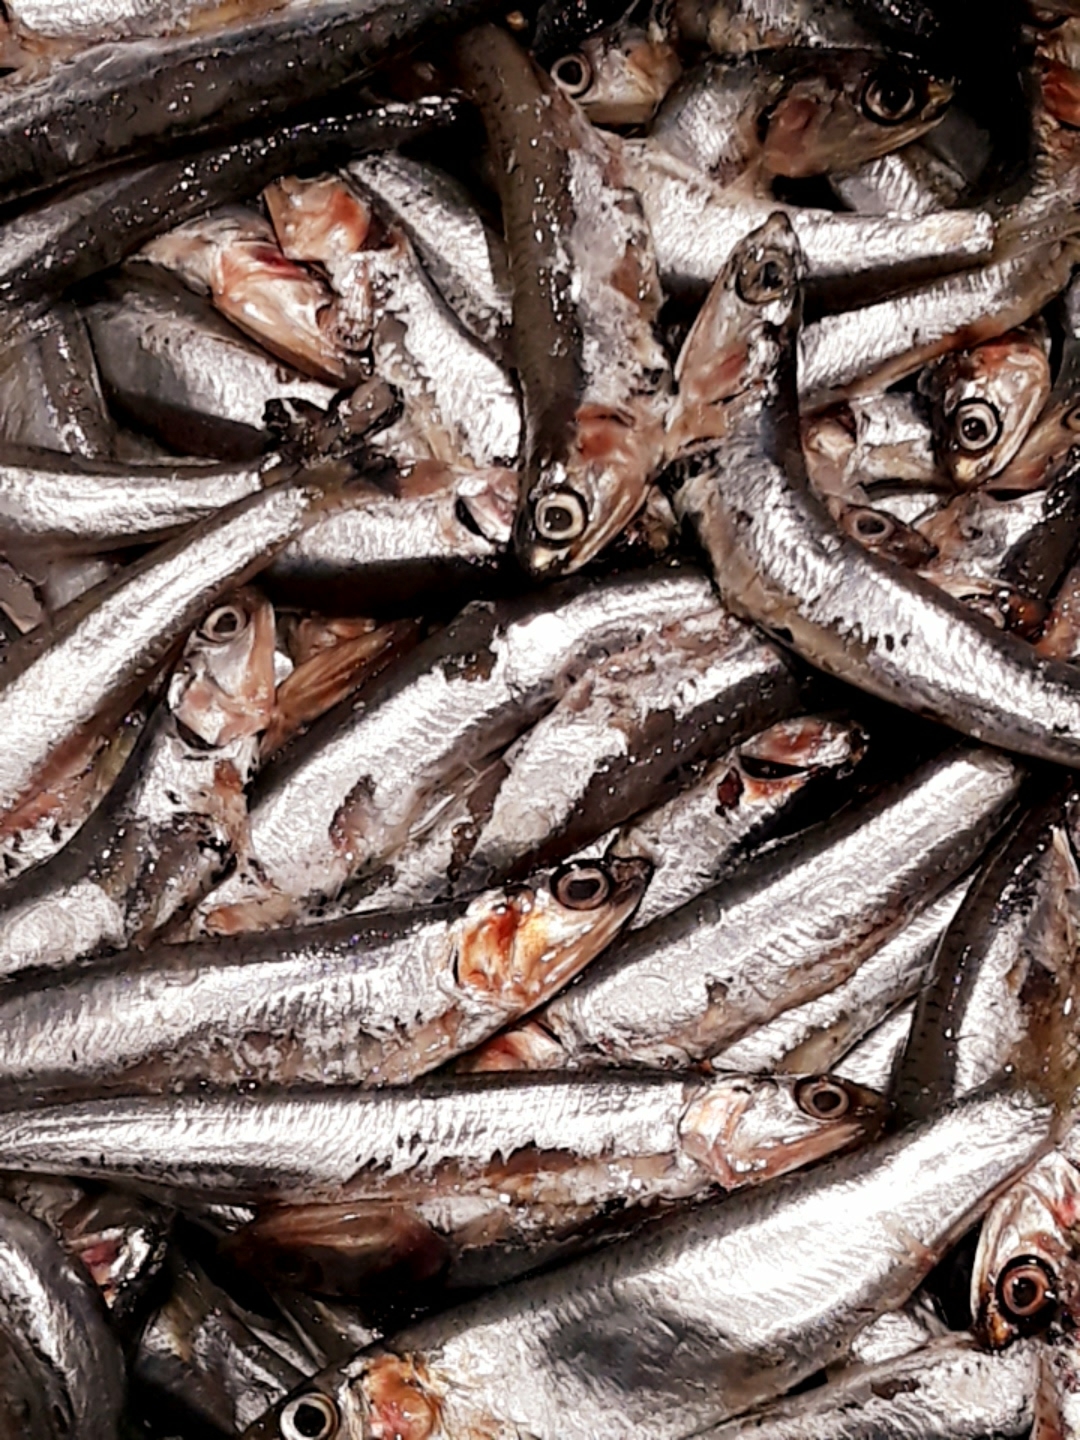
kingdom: Animalia
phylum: Chordata
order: Clupeiformes
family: Engraulidae
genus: Engraulis
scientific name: Engraulis encrasicolus
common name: European anchovy
